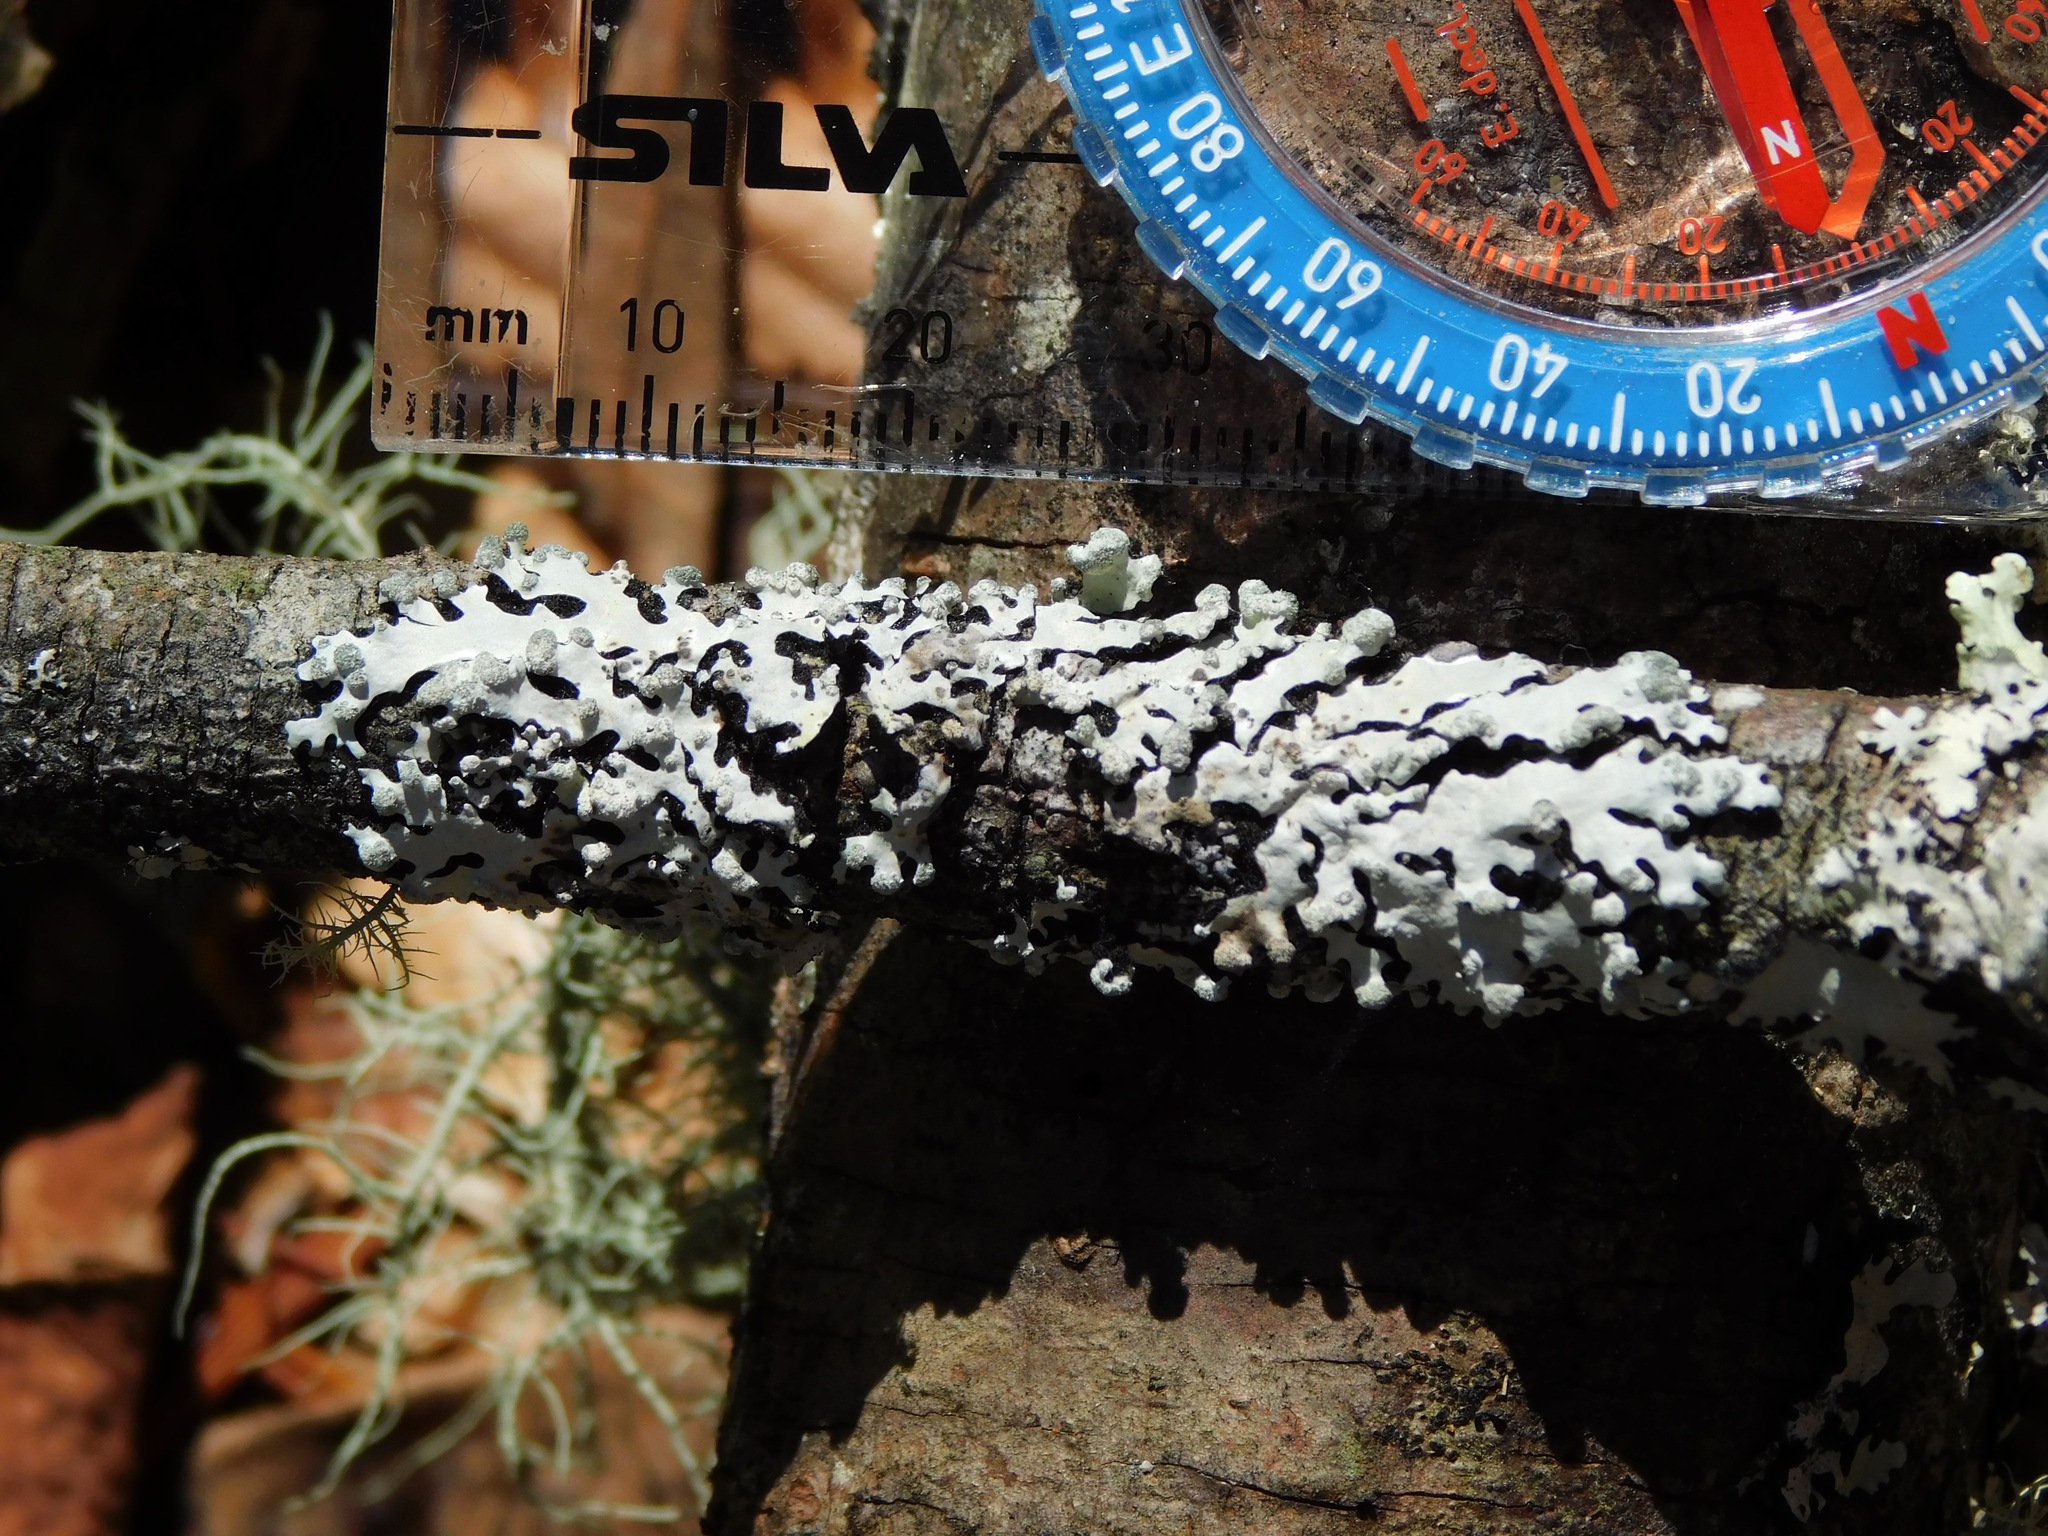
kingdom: Fungi
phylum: Ascomycota
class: Lecanoromycetes
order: Lecanorales
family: Parmeliaceae
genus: Myelochroa
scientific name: Myelochroa metarevoluta
